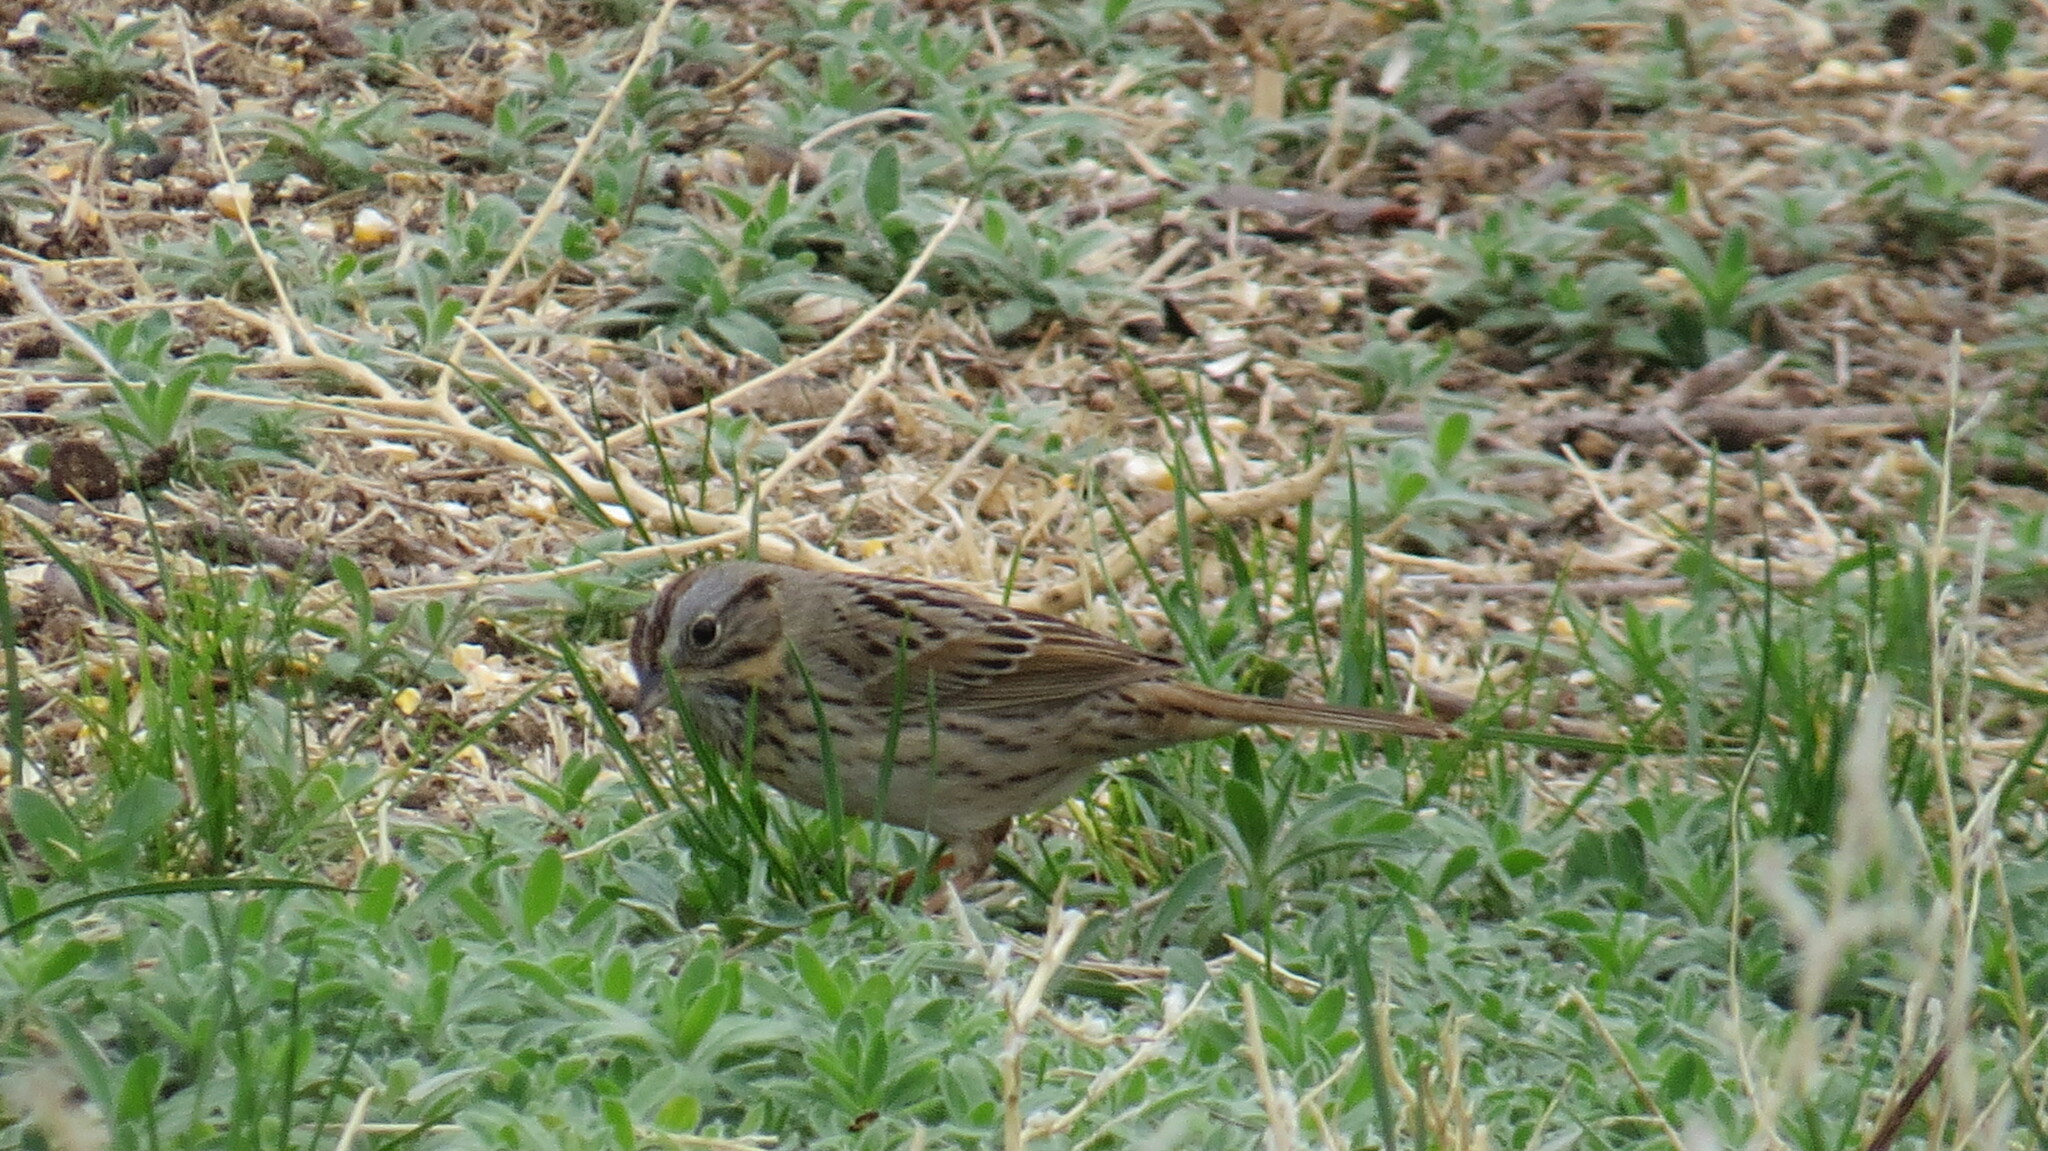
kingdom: Animalia
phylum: Chordata
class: Aves
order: Passeriformes
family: Passerellidae
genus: Melospiza
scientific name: Melospiza lincolnii
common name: Lincoln's sparrow
